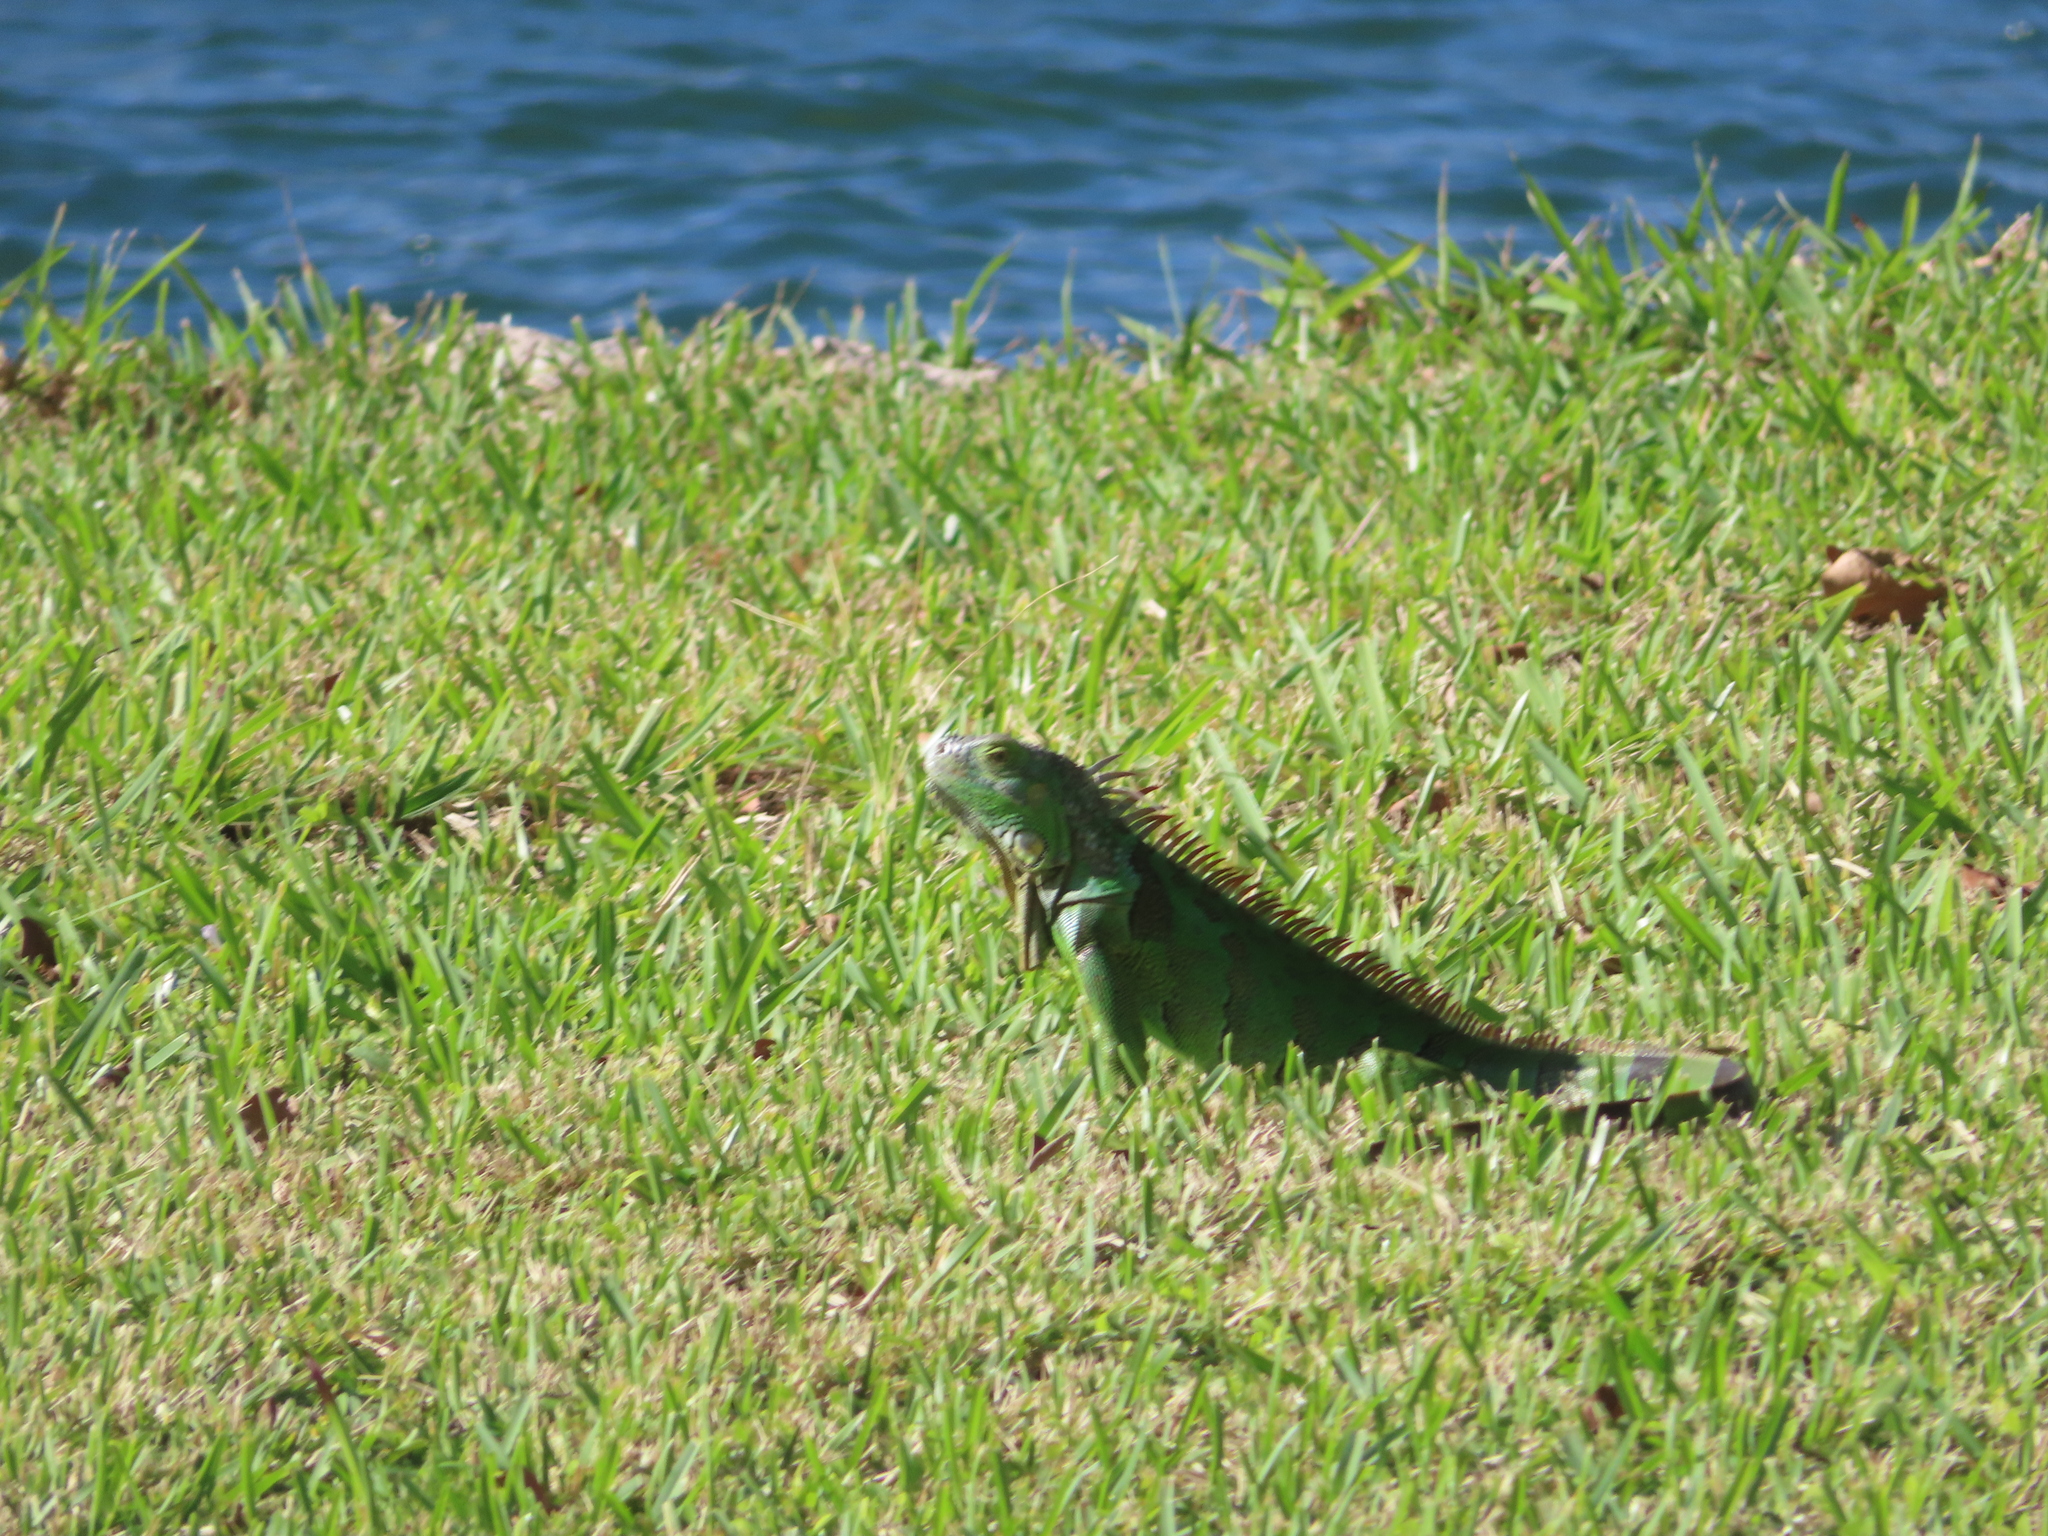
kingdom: Animalia
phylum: Chordata
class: Squamata
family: Iguanidae
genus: Iguana
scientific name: Iguana iguana
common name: Green iguana
